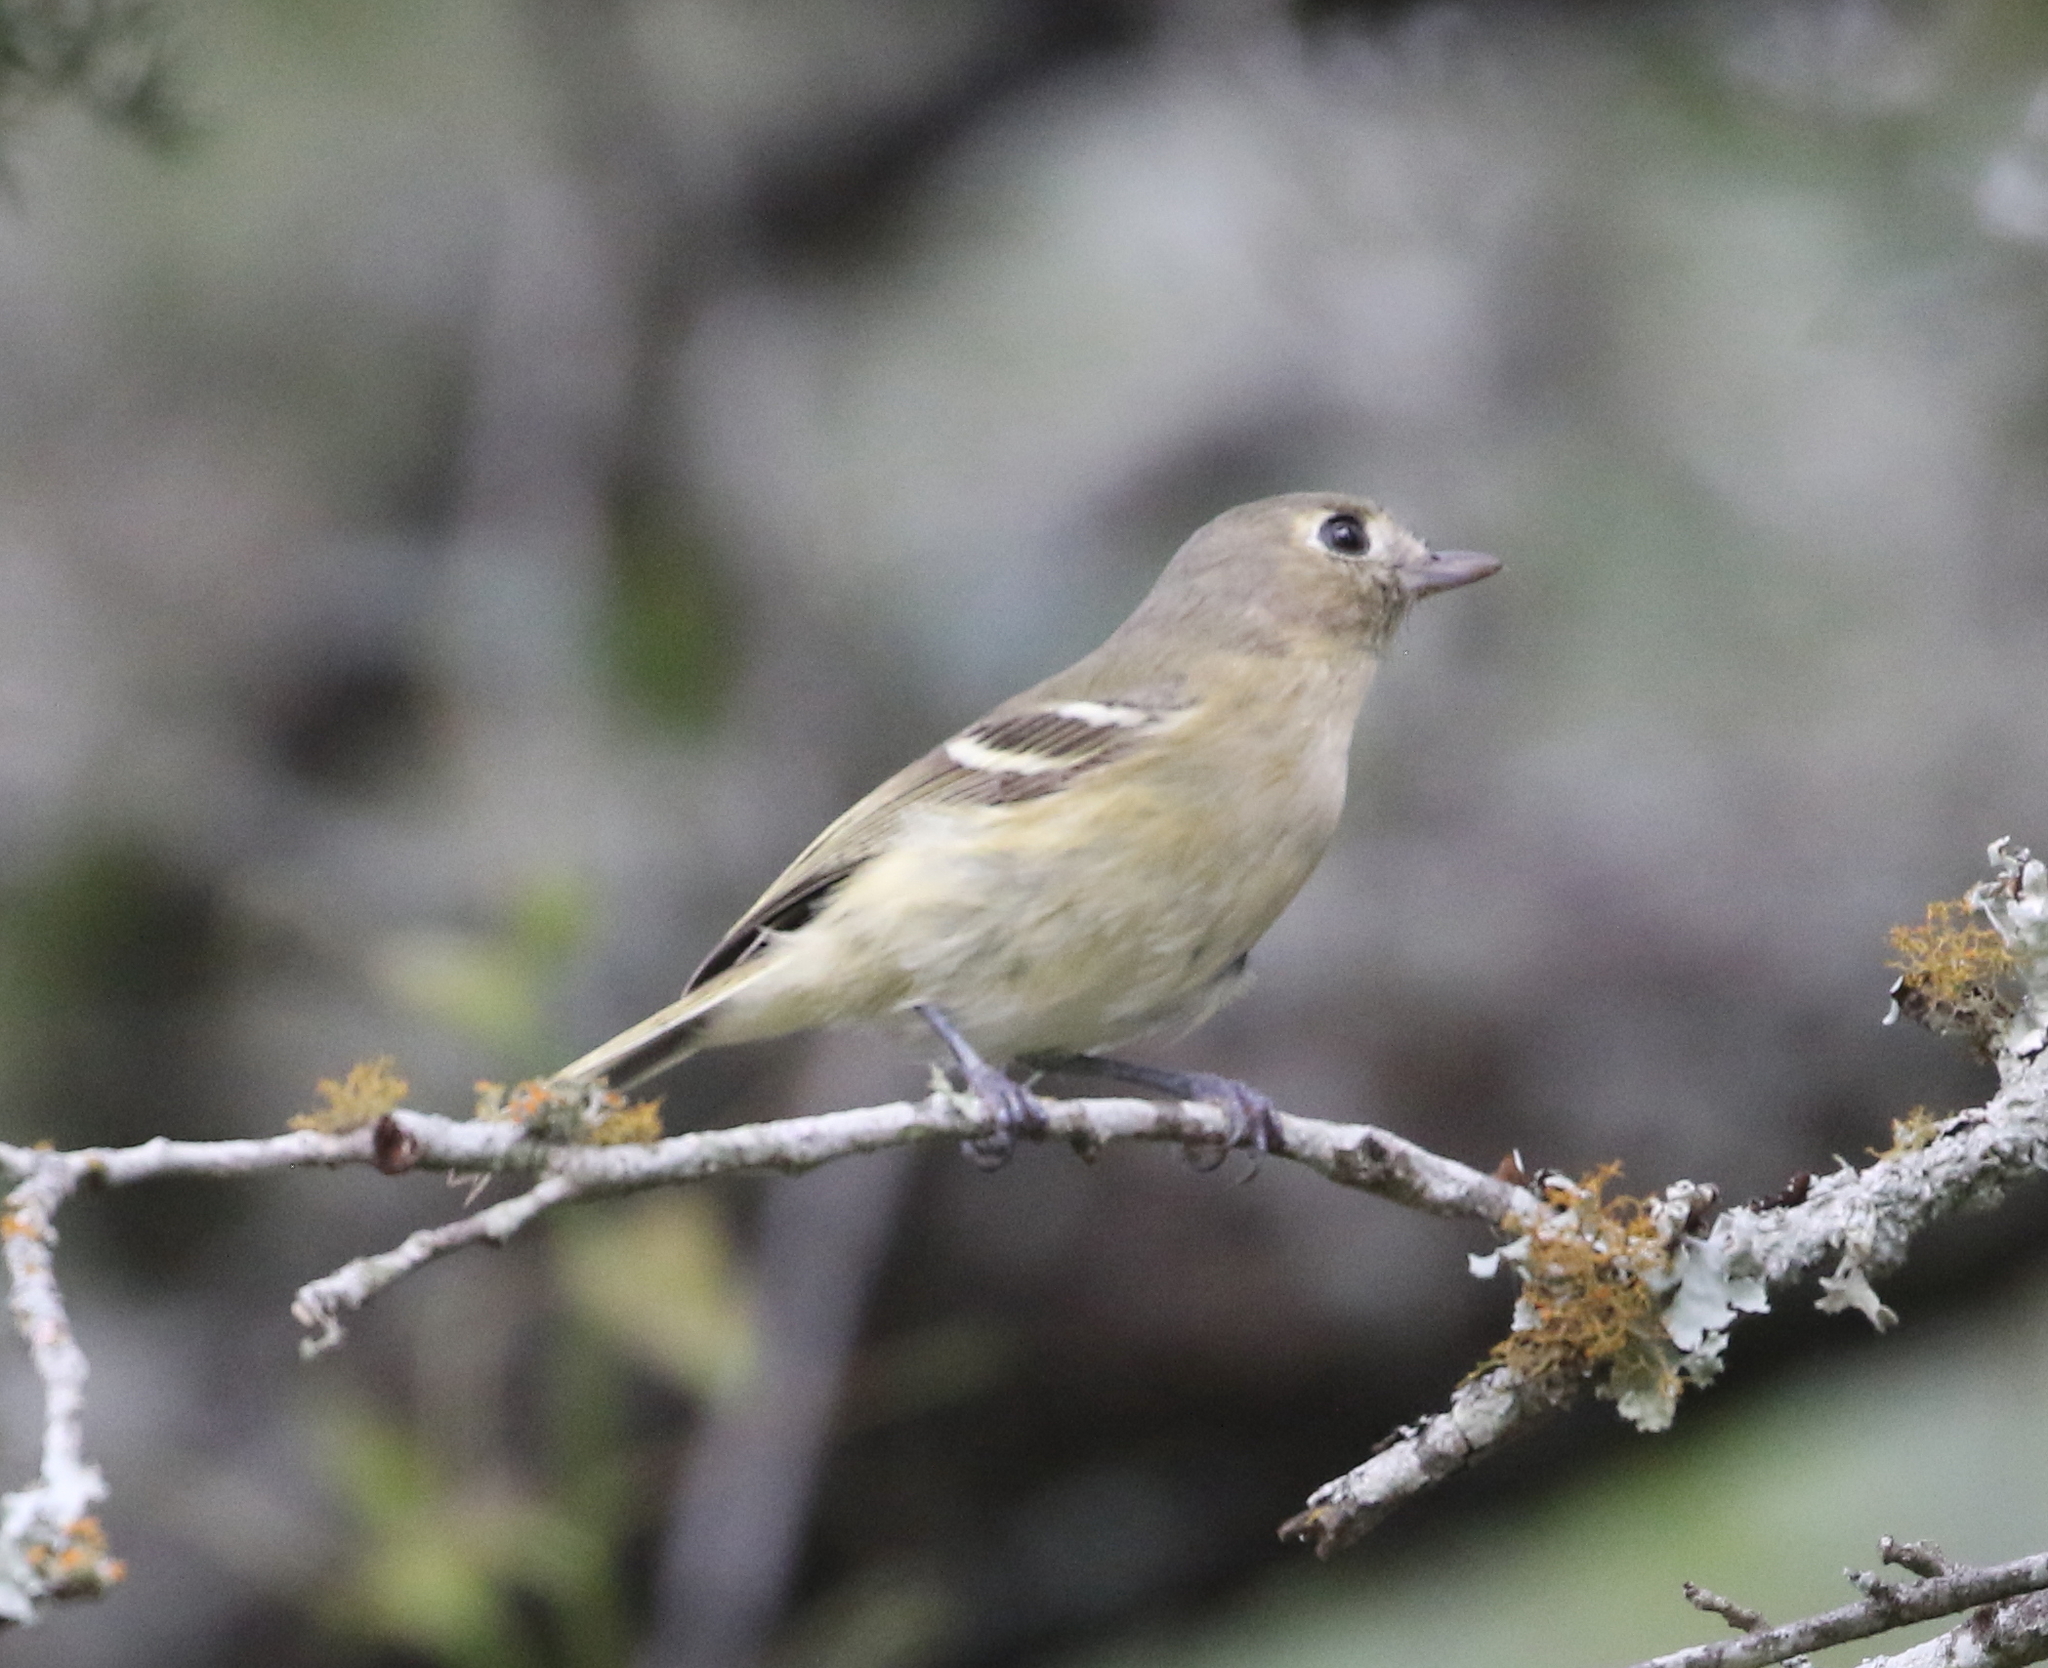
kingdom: Animalia
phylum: Chordata
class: Aves
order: Passeriformes
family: Vireonidae
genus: Vireo
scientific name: Vireo huttoni
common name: Hutton's vireo
